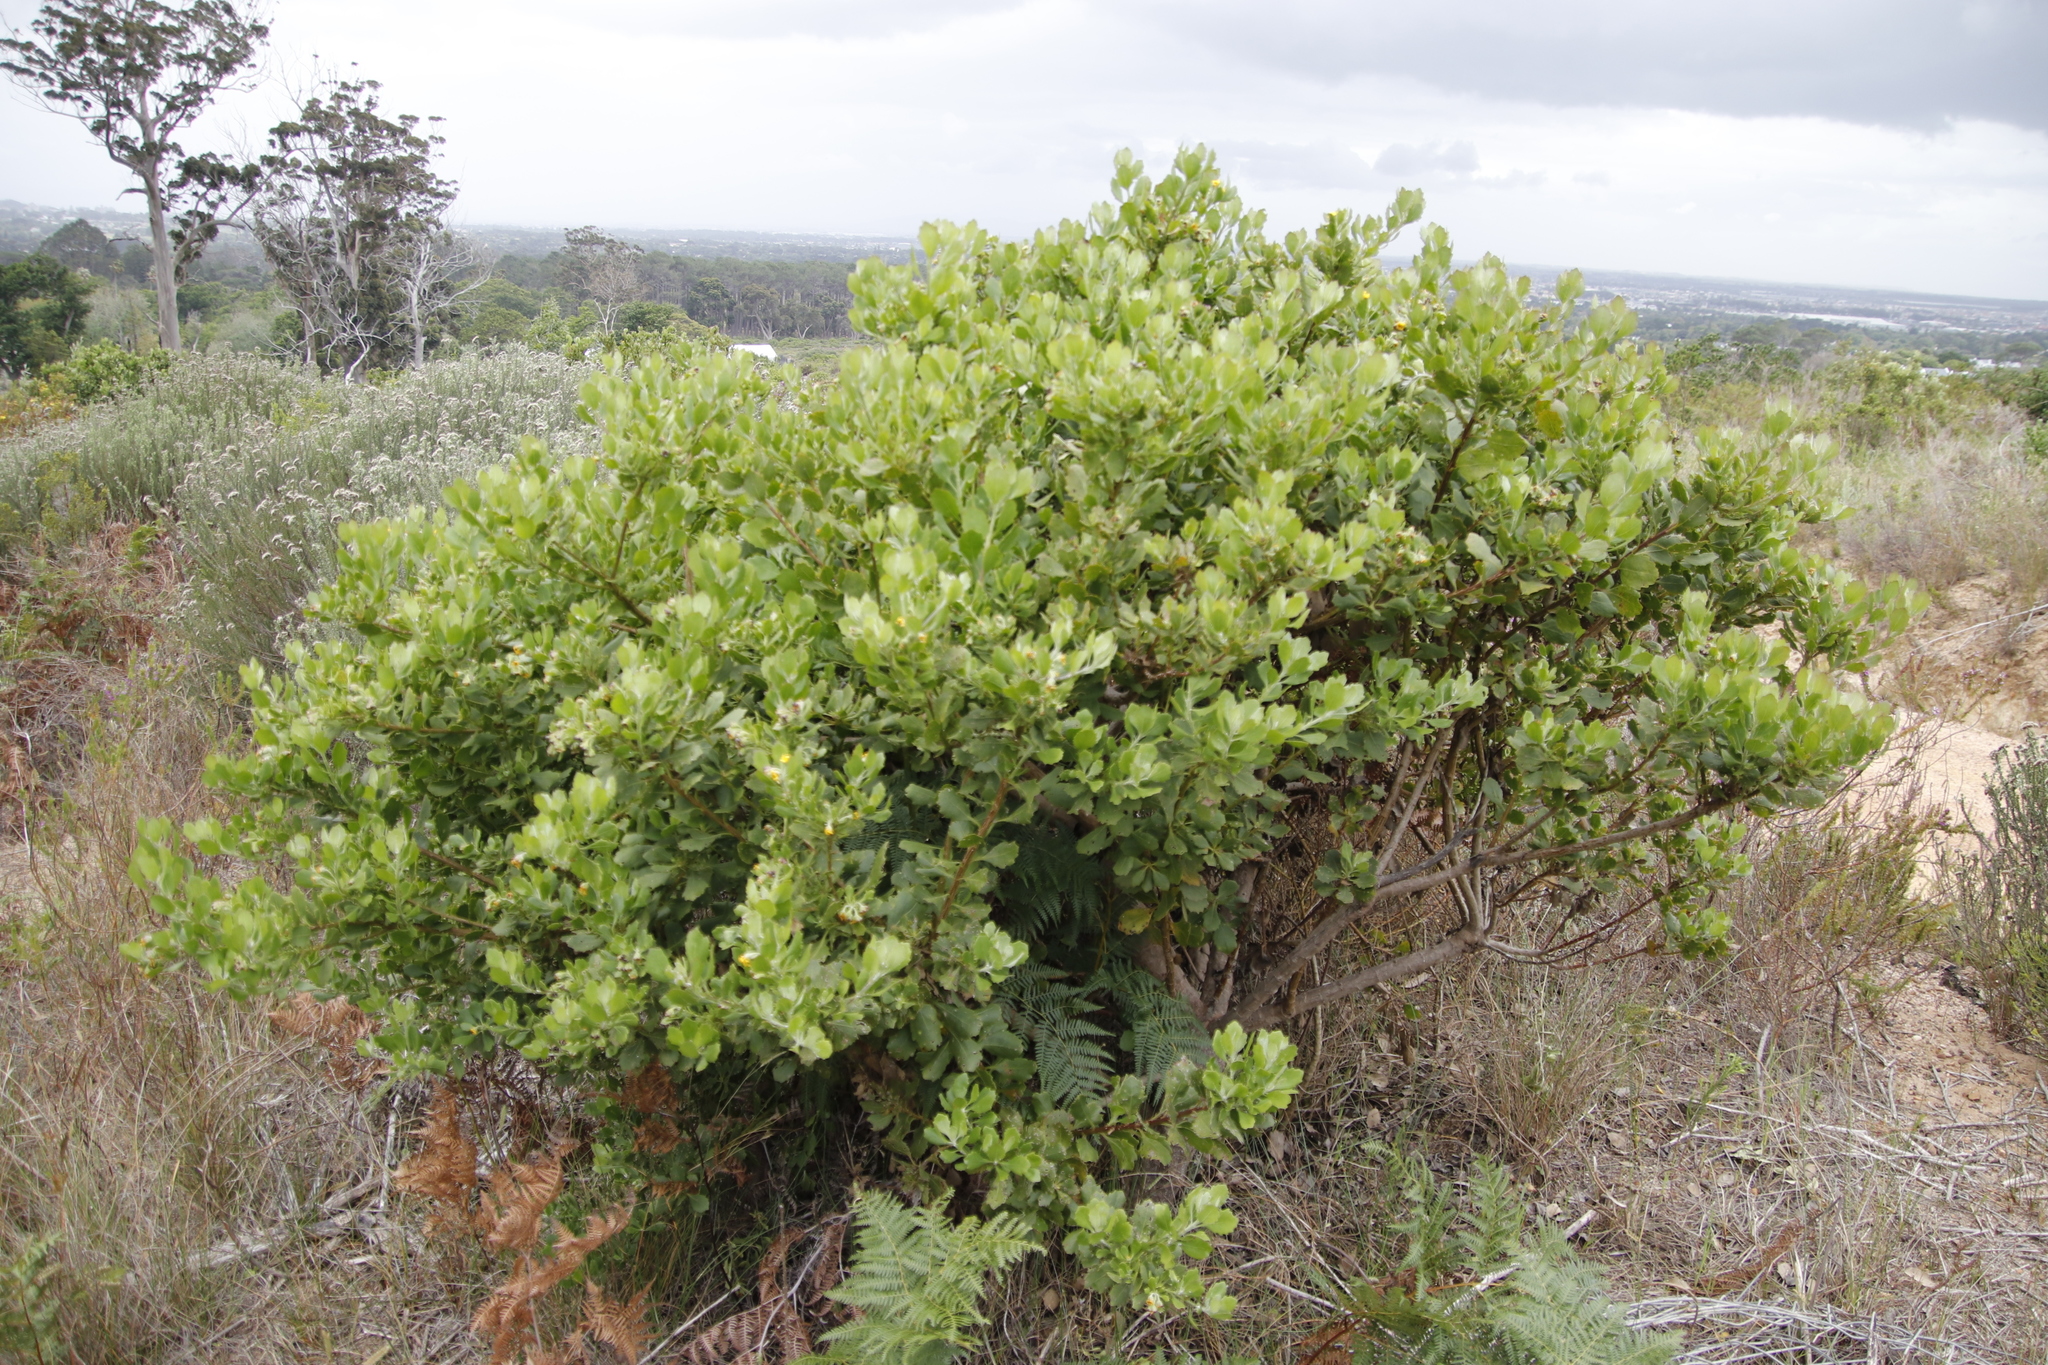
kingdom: Plantae
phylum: Tracheophyta
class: Magnoliopsida
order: Asterales
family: Asteraceae
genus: Osteospermum
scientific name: Osteospermum moniliferum
